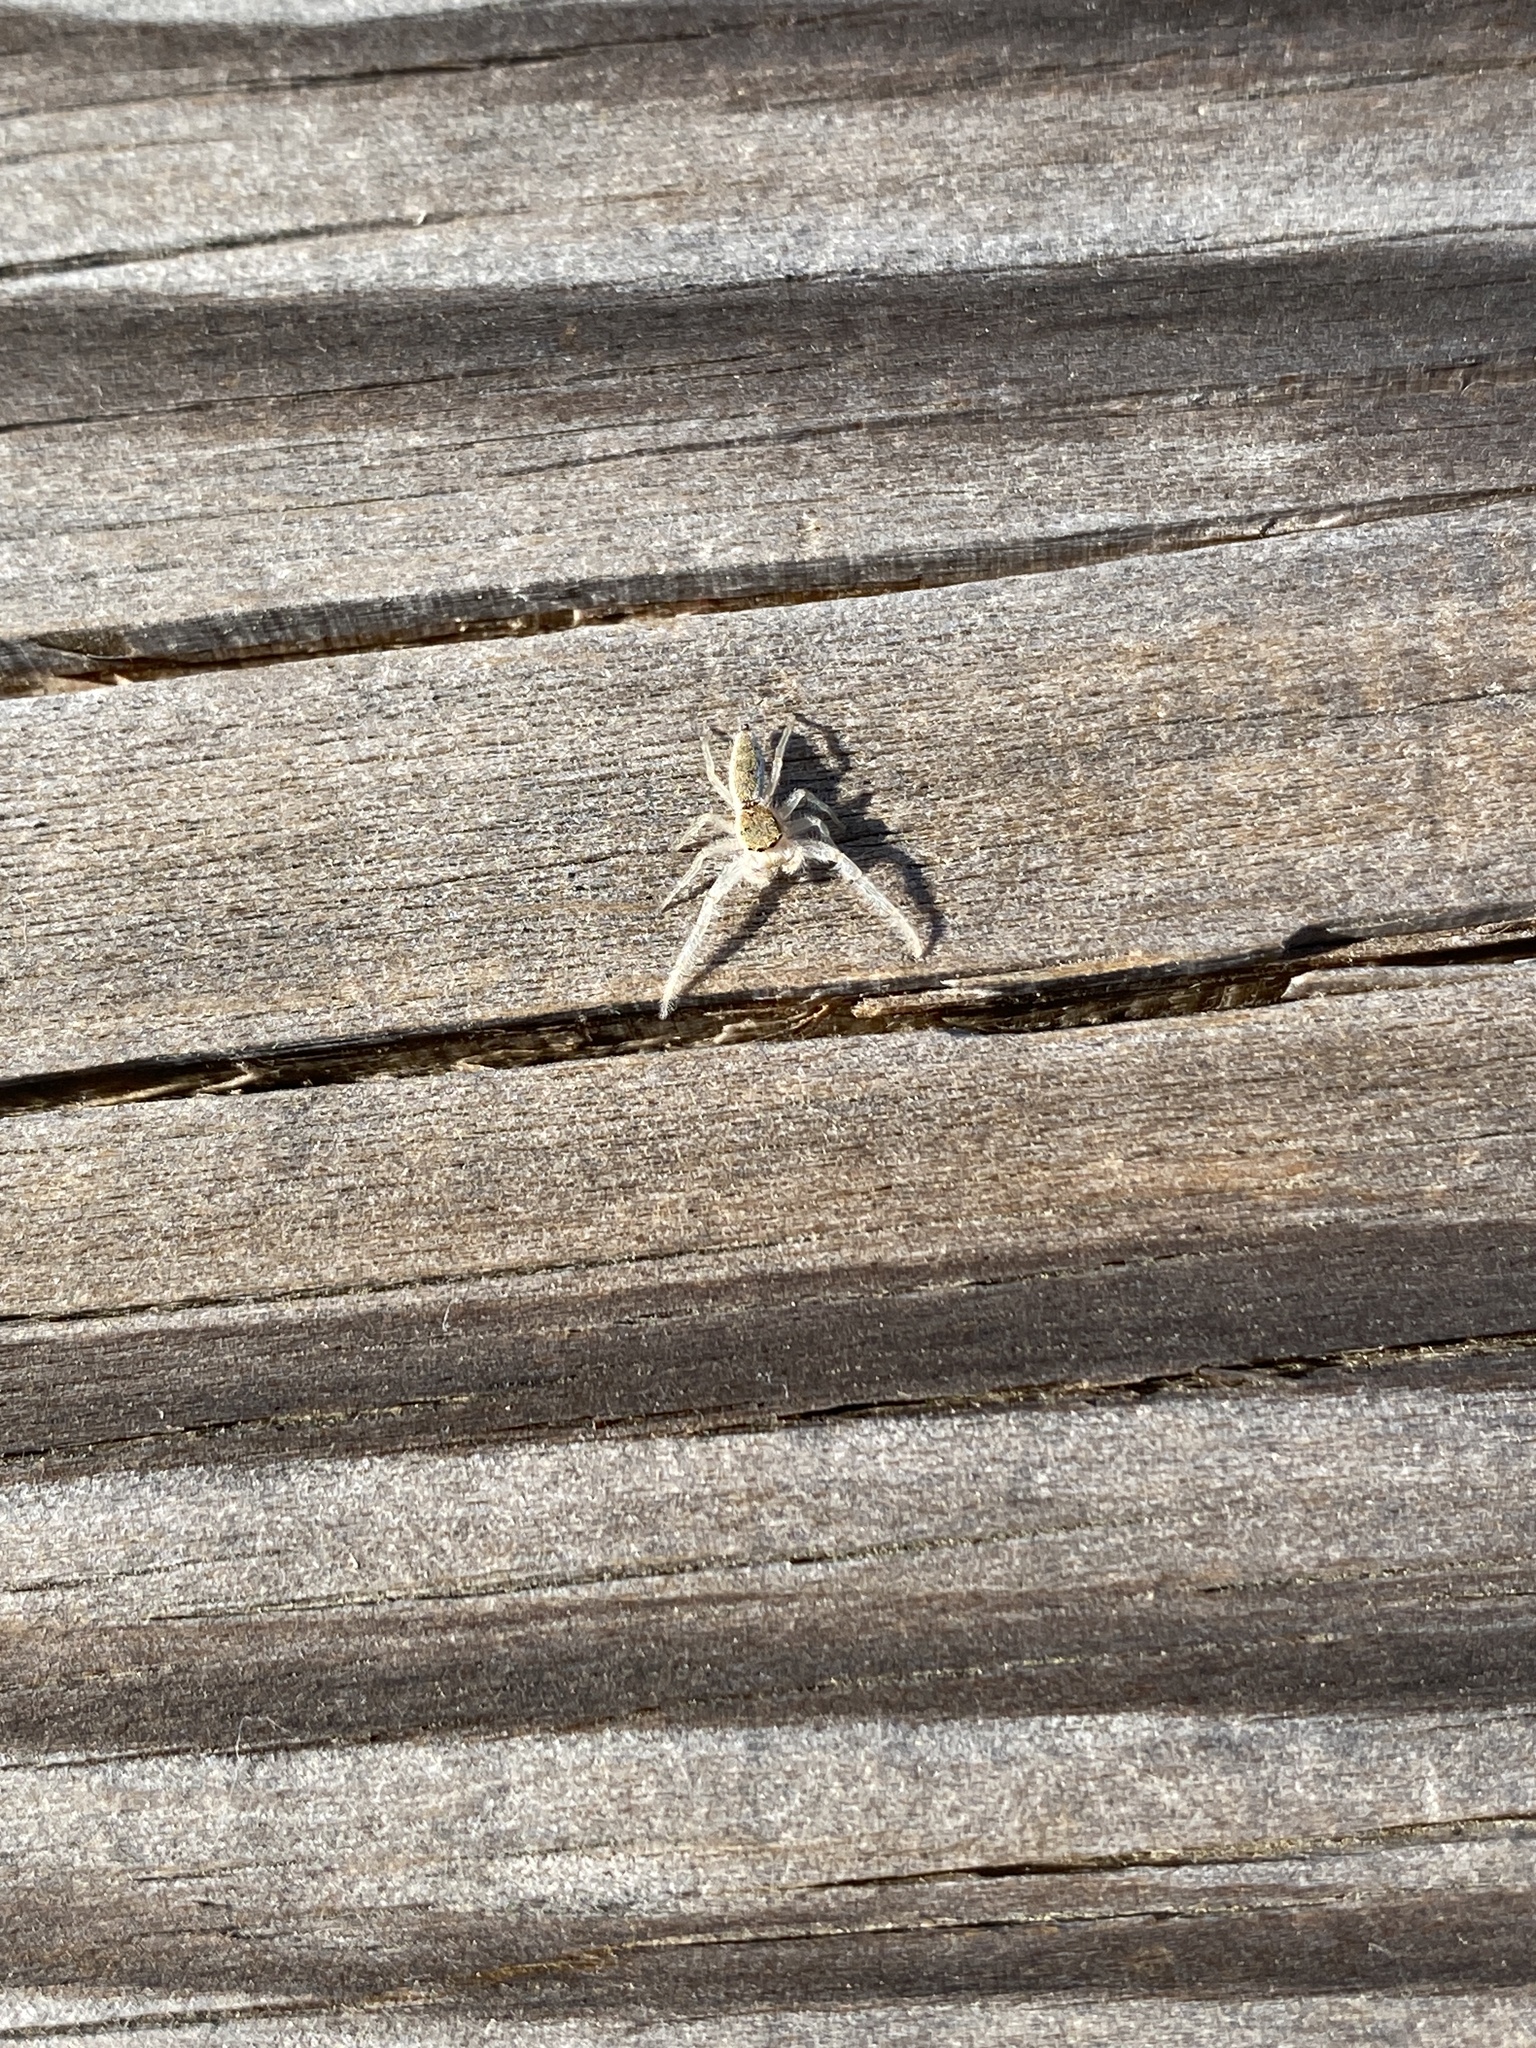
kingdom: Animalia
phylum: Arthropoda
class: Arachnida
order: Araneae
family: Salticidae
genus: Hentzia
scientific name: Hentzia mitrata
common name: White-jawed jumping spider
